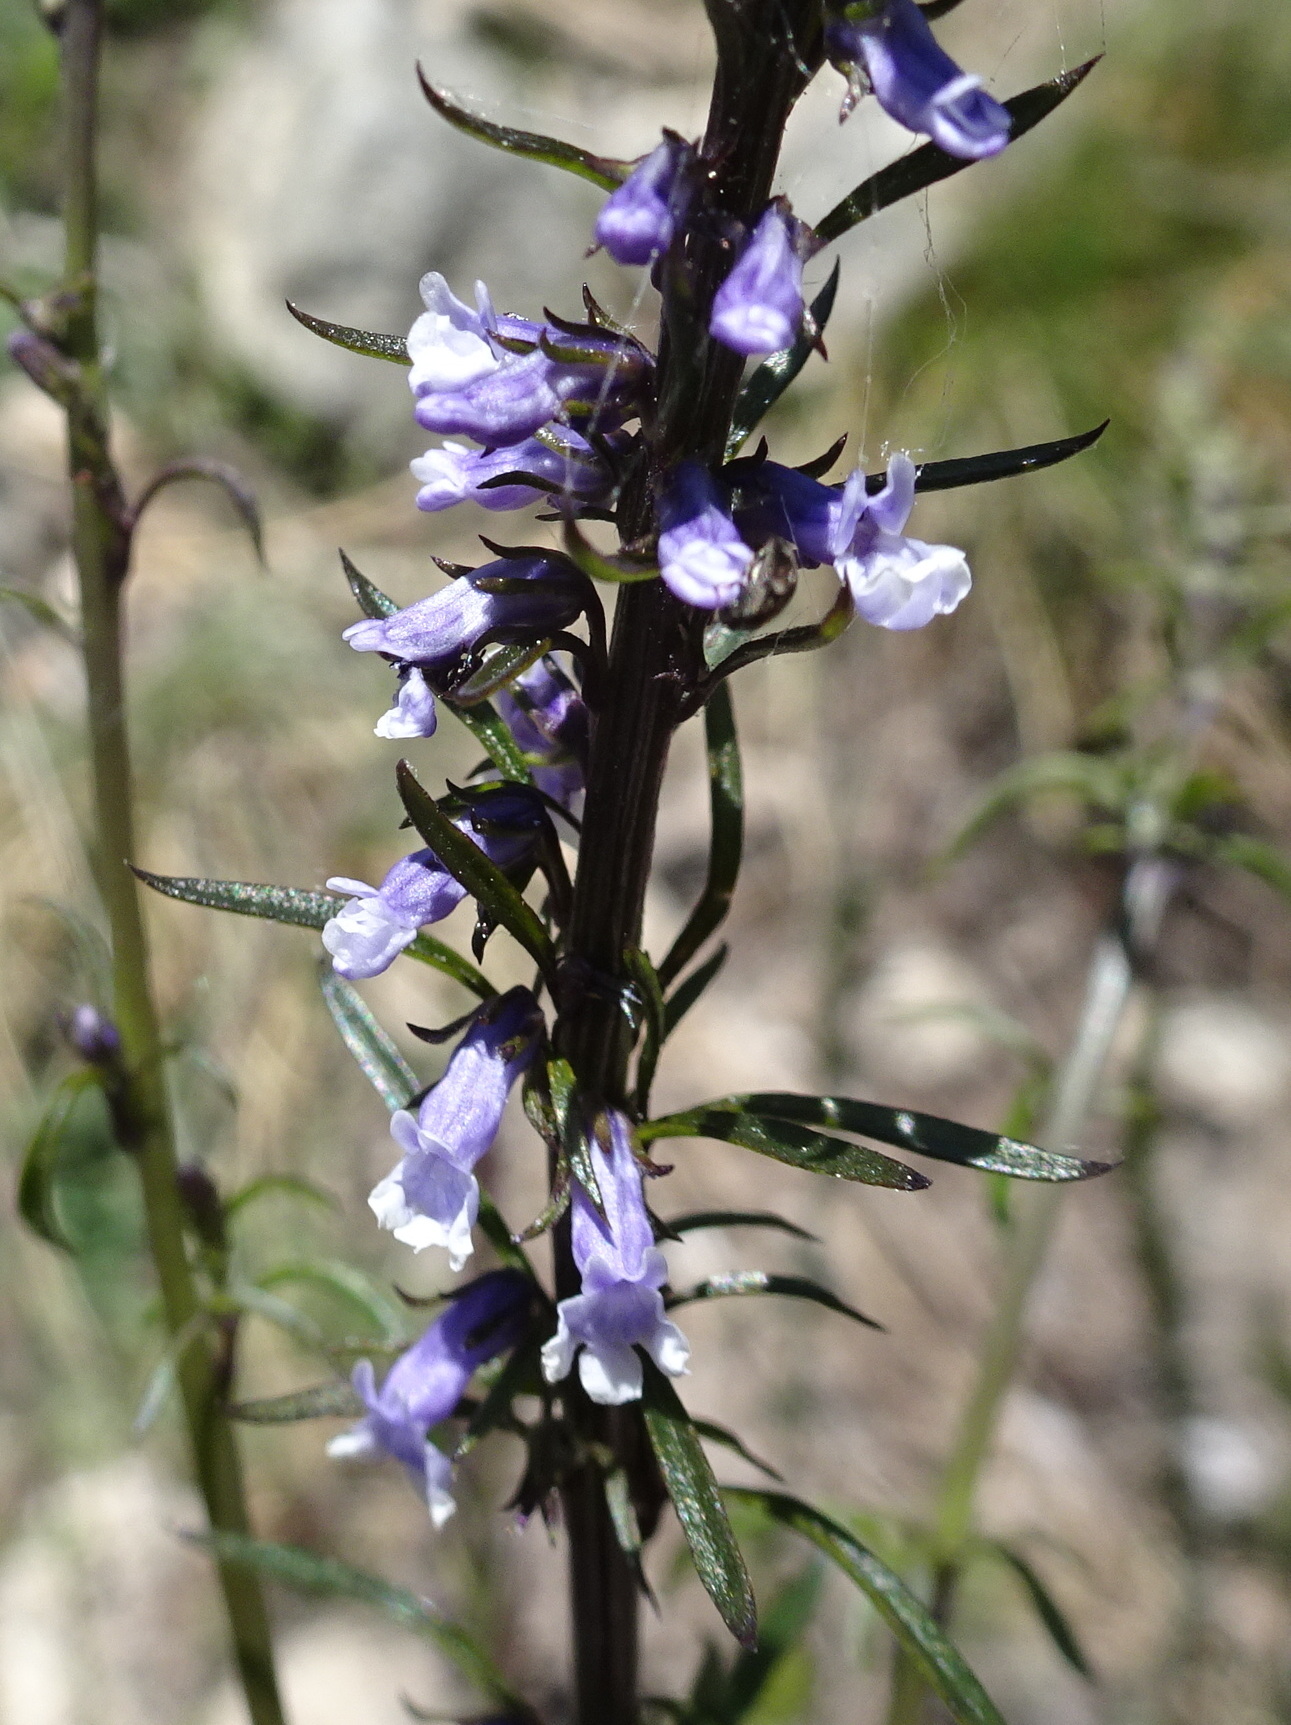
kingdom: Plantae
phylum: Tracheophyta
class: Magnoliopsida
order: Lamiales
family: Plantaginaceae
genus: Anarrhinum
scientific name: Anarrhinum bellidifolium
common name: Daisy-leaved toadflax
